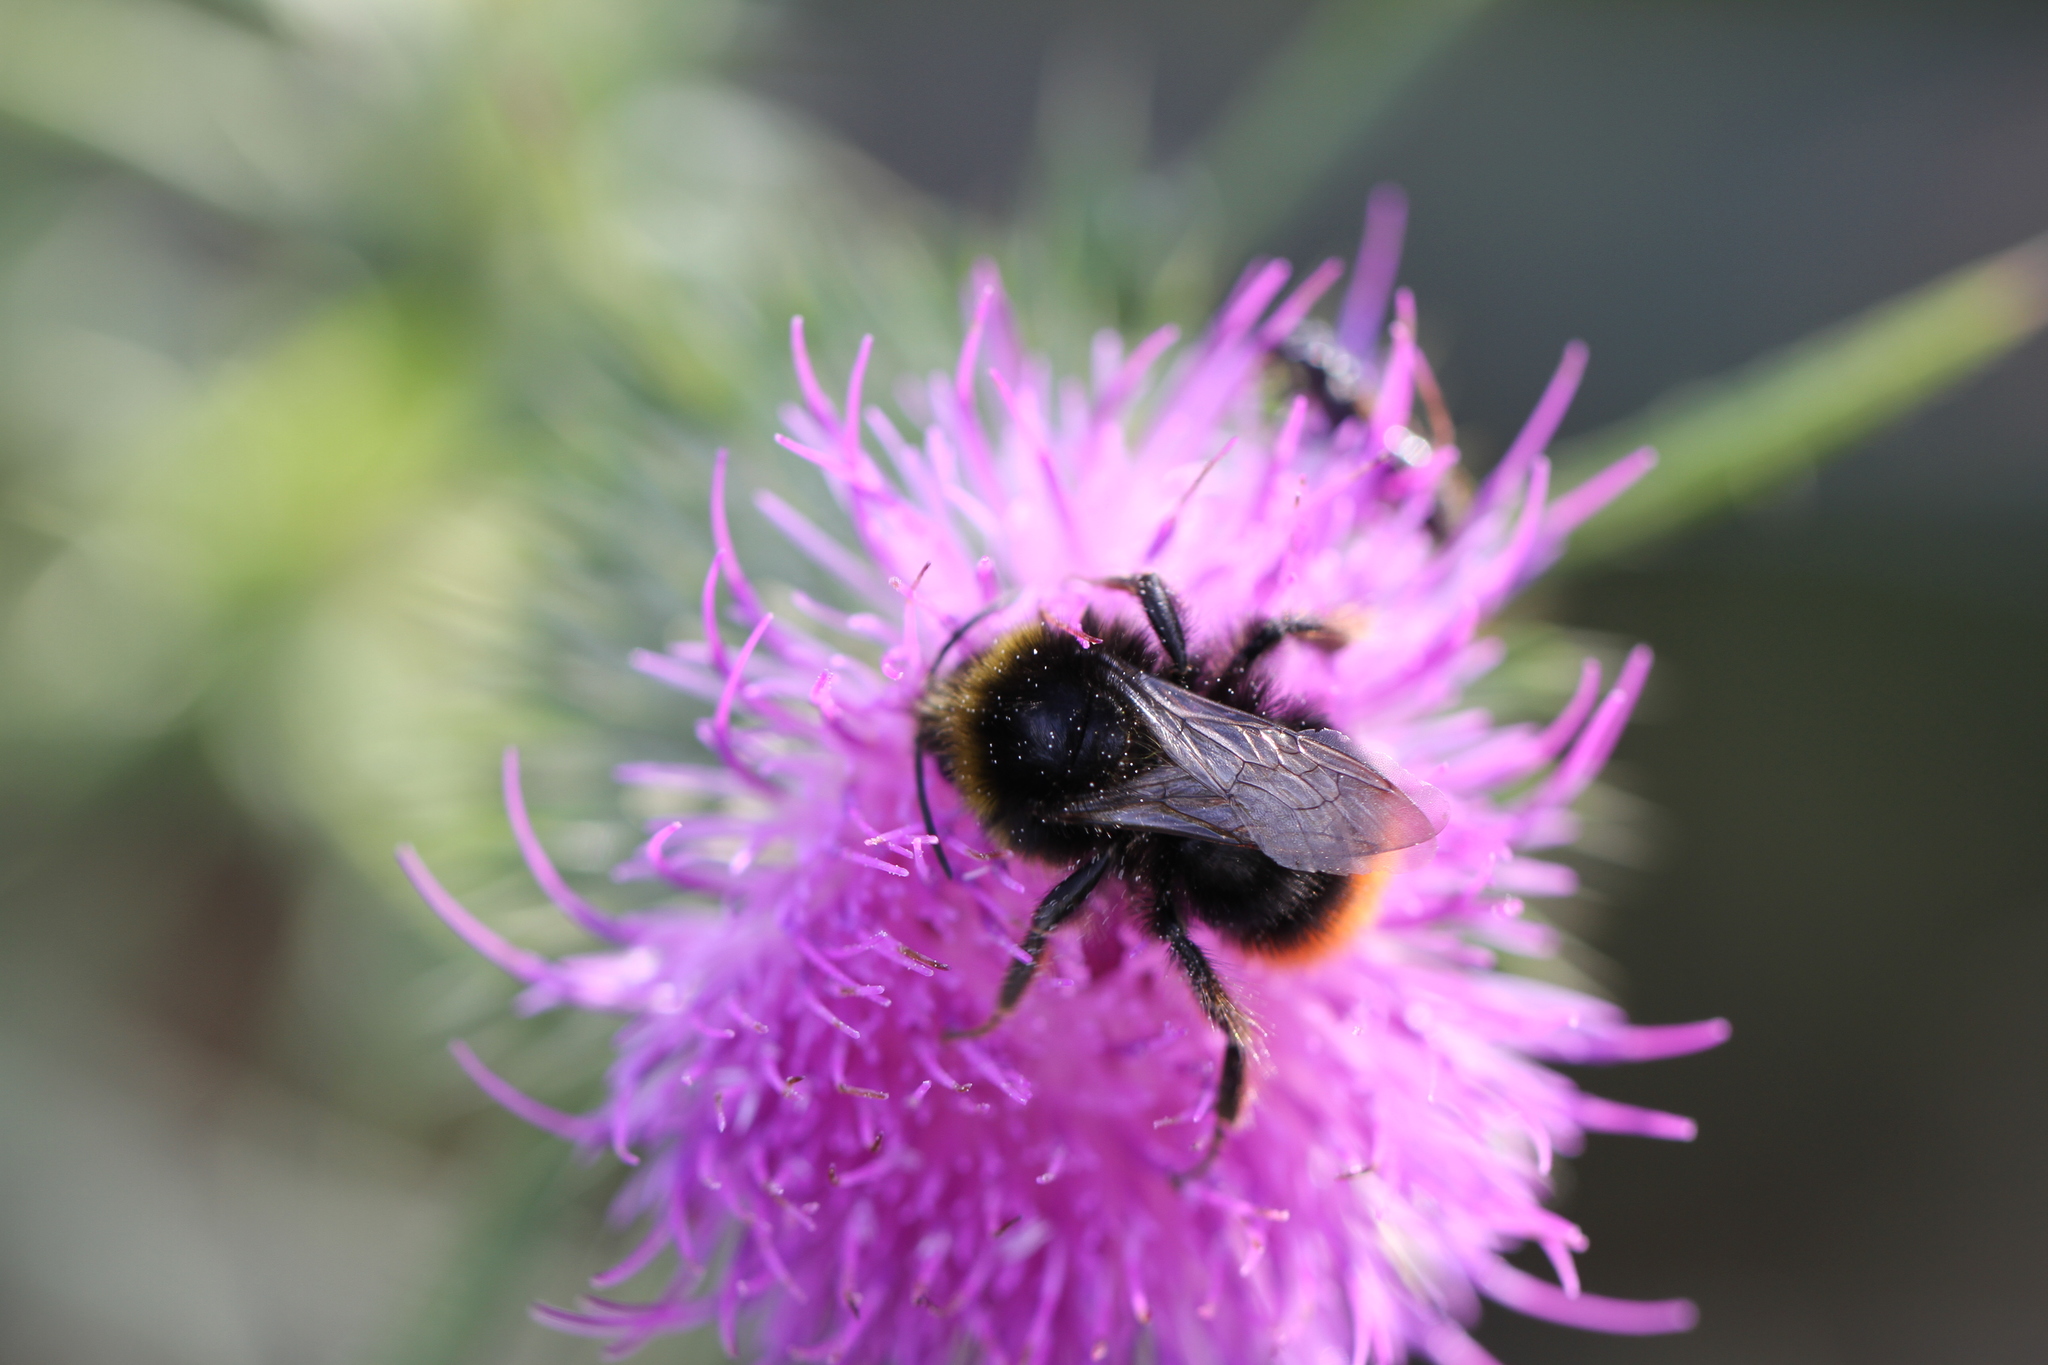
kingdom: Animalia
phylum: Arthropoda
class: Insecta
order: Hymenoptera
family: Apidae
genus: Bombus
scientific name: Bombus lapidarius
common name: Large red-tailed humble-bee
